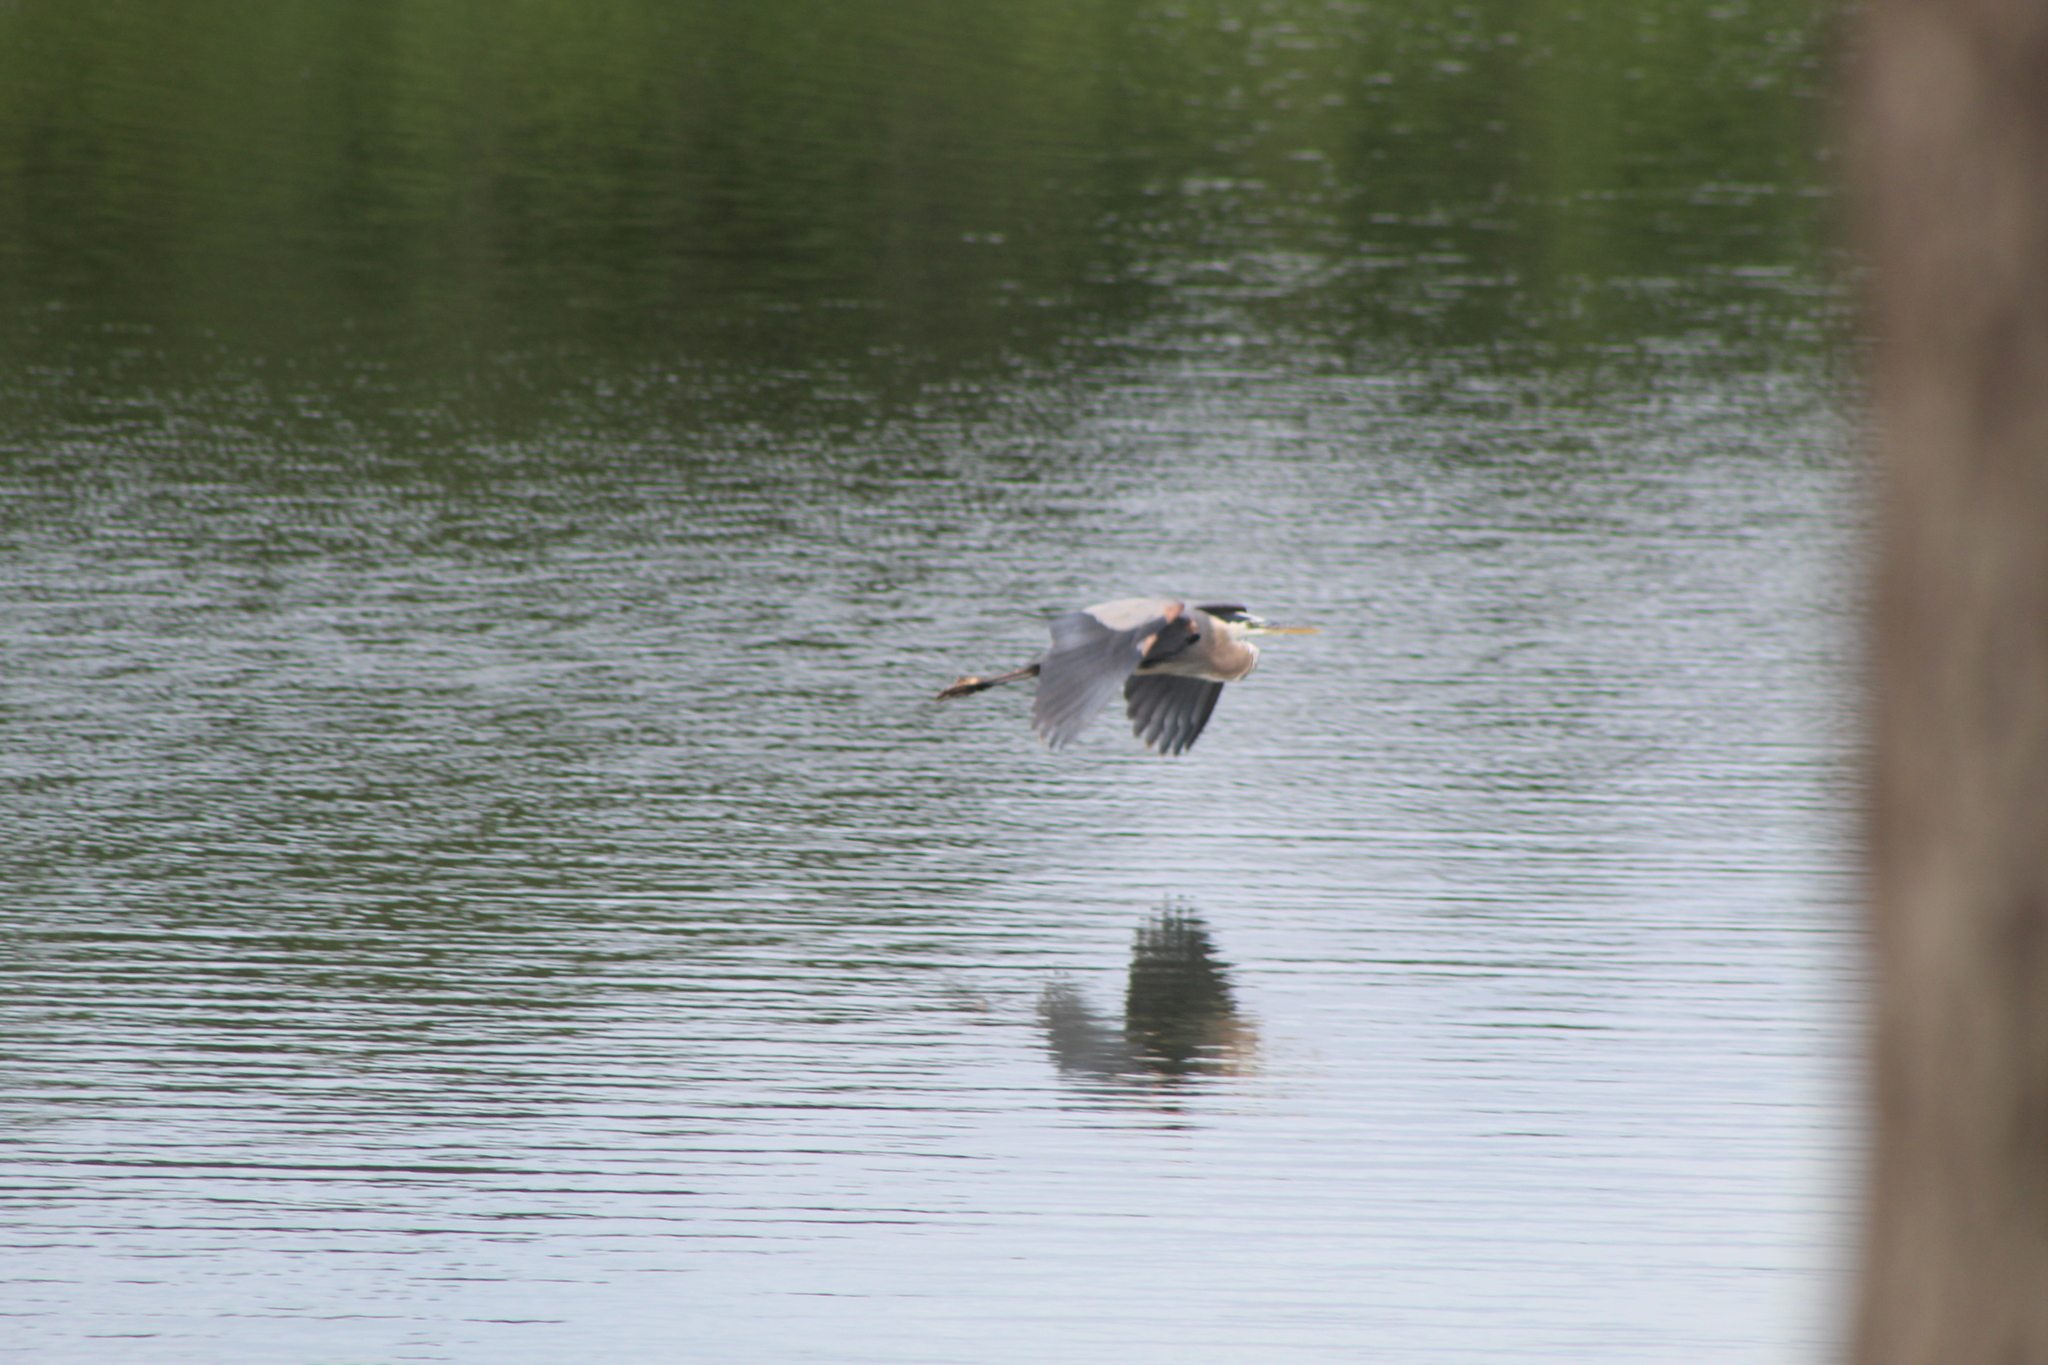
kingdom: Animalia
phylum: Chordata
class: Aves
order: Pelecaniformes
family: Ardeidae
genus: Ardea
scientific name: Ardea herodias
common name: Great blue heron
